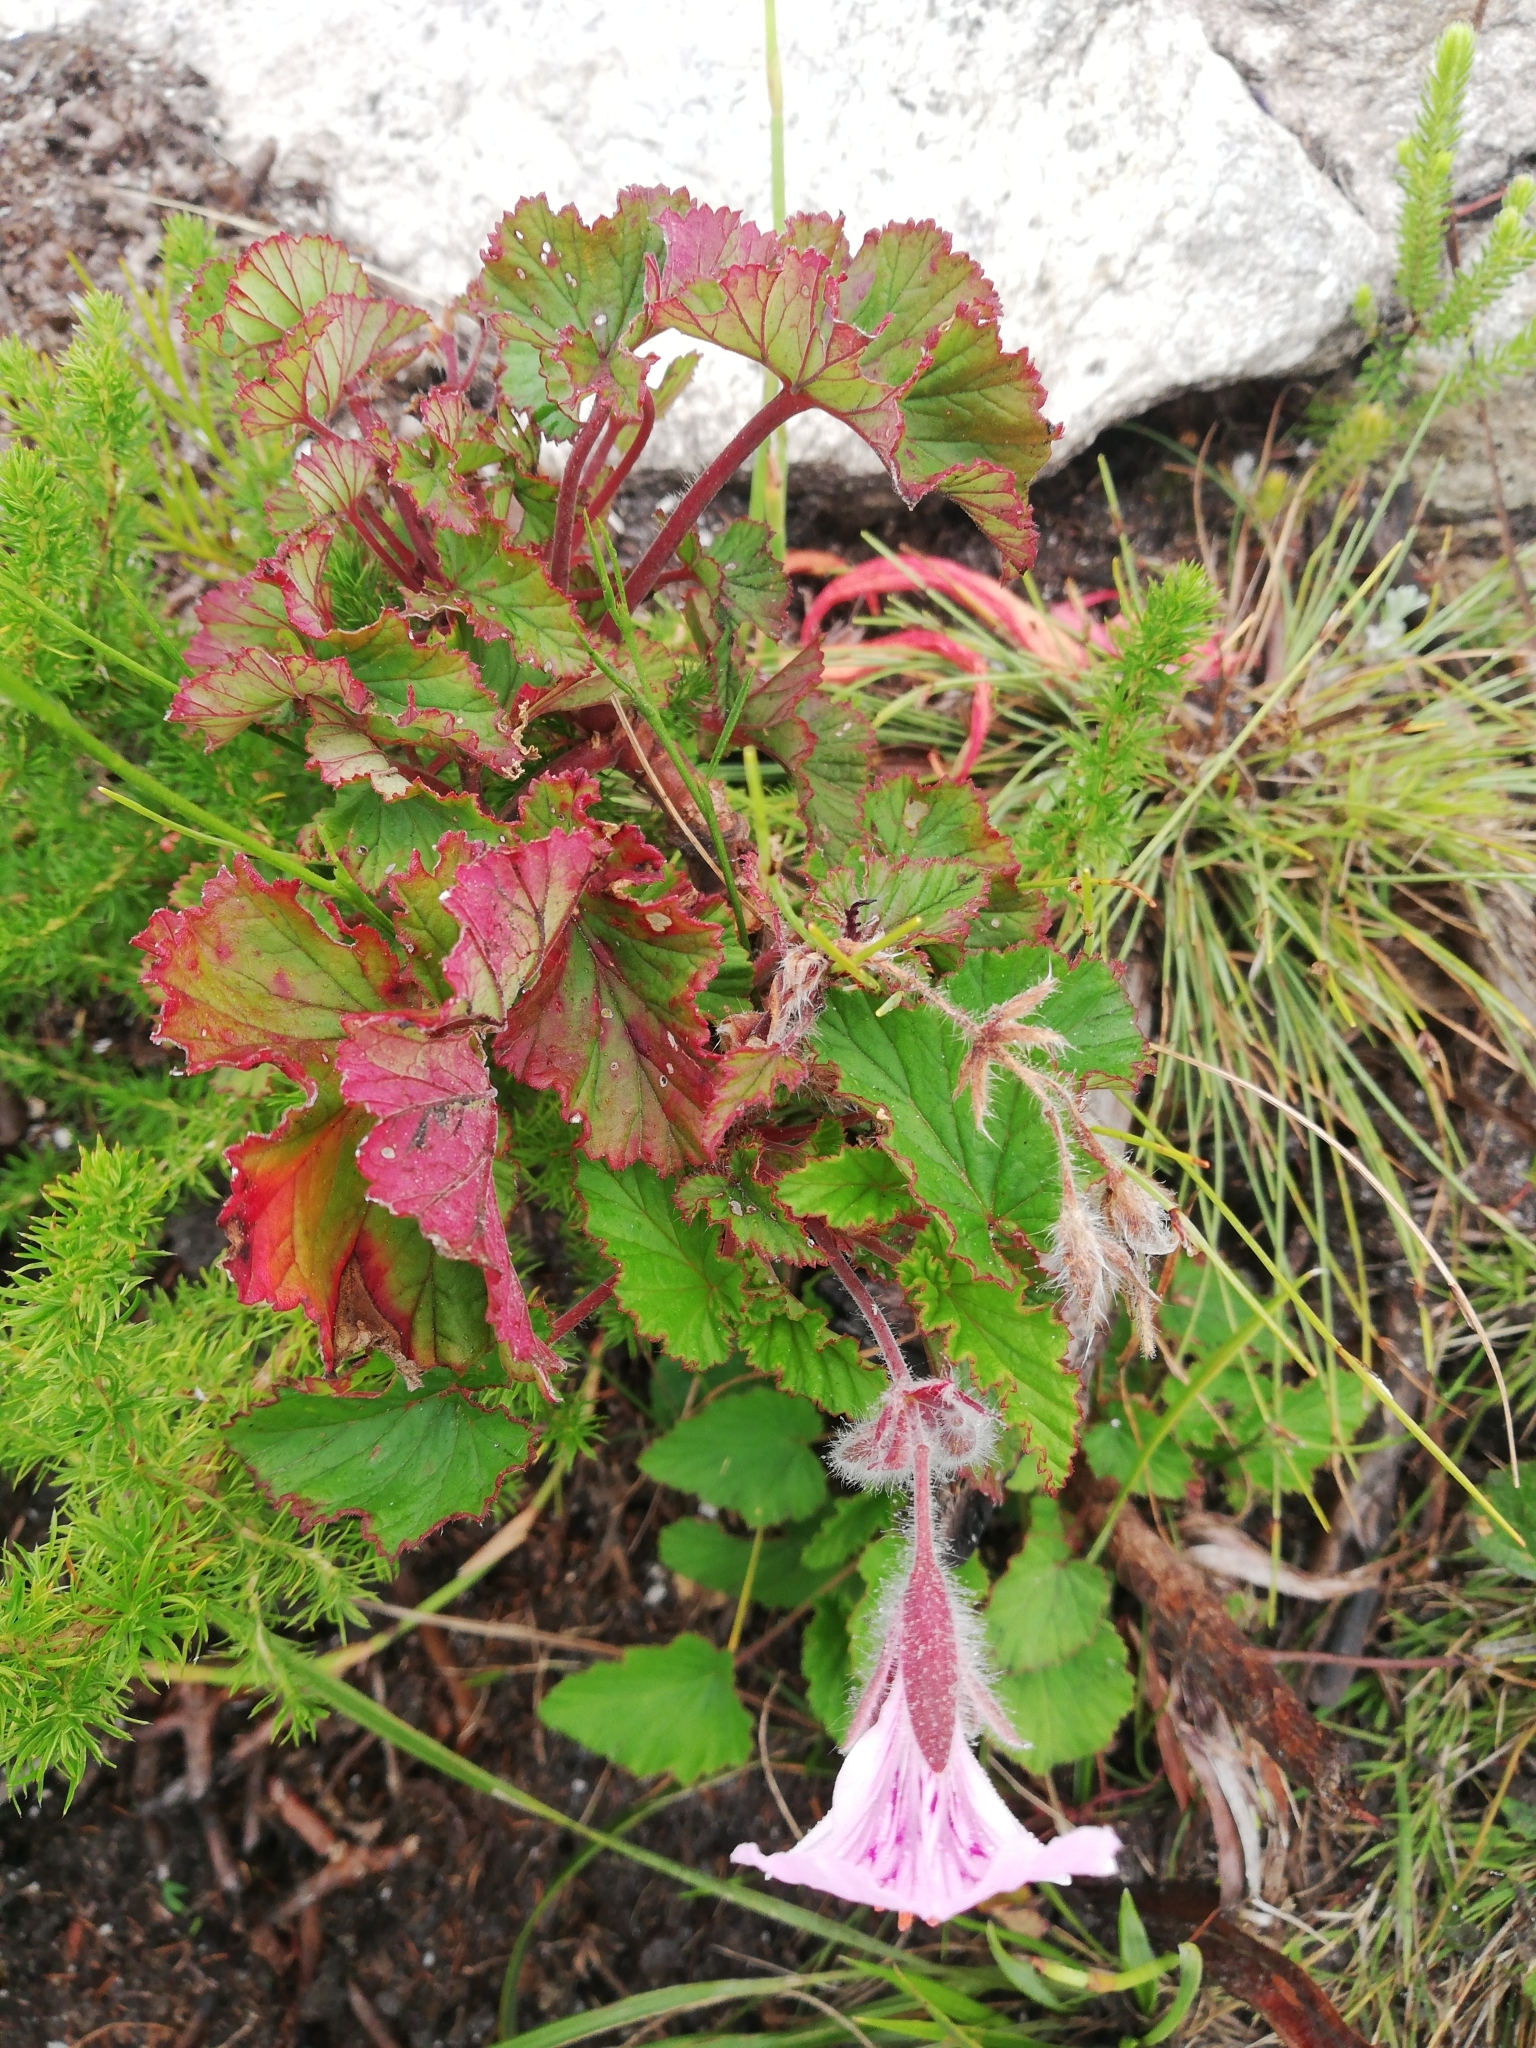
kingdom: Plantae
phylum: Tracheophyta
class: Magnoliopsida
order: Geraniales
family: Geraniaceae
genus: Pelargonium
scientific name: Pelargonium cordifolium
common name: Heart-leaf pelargonium
